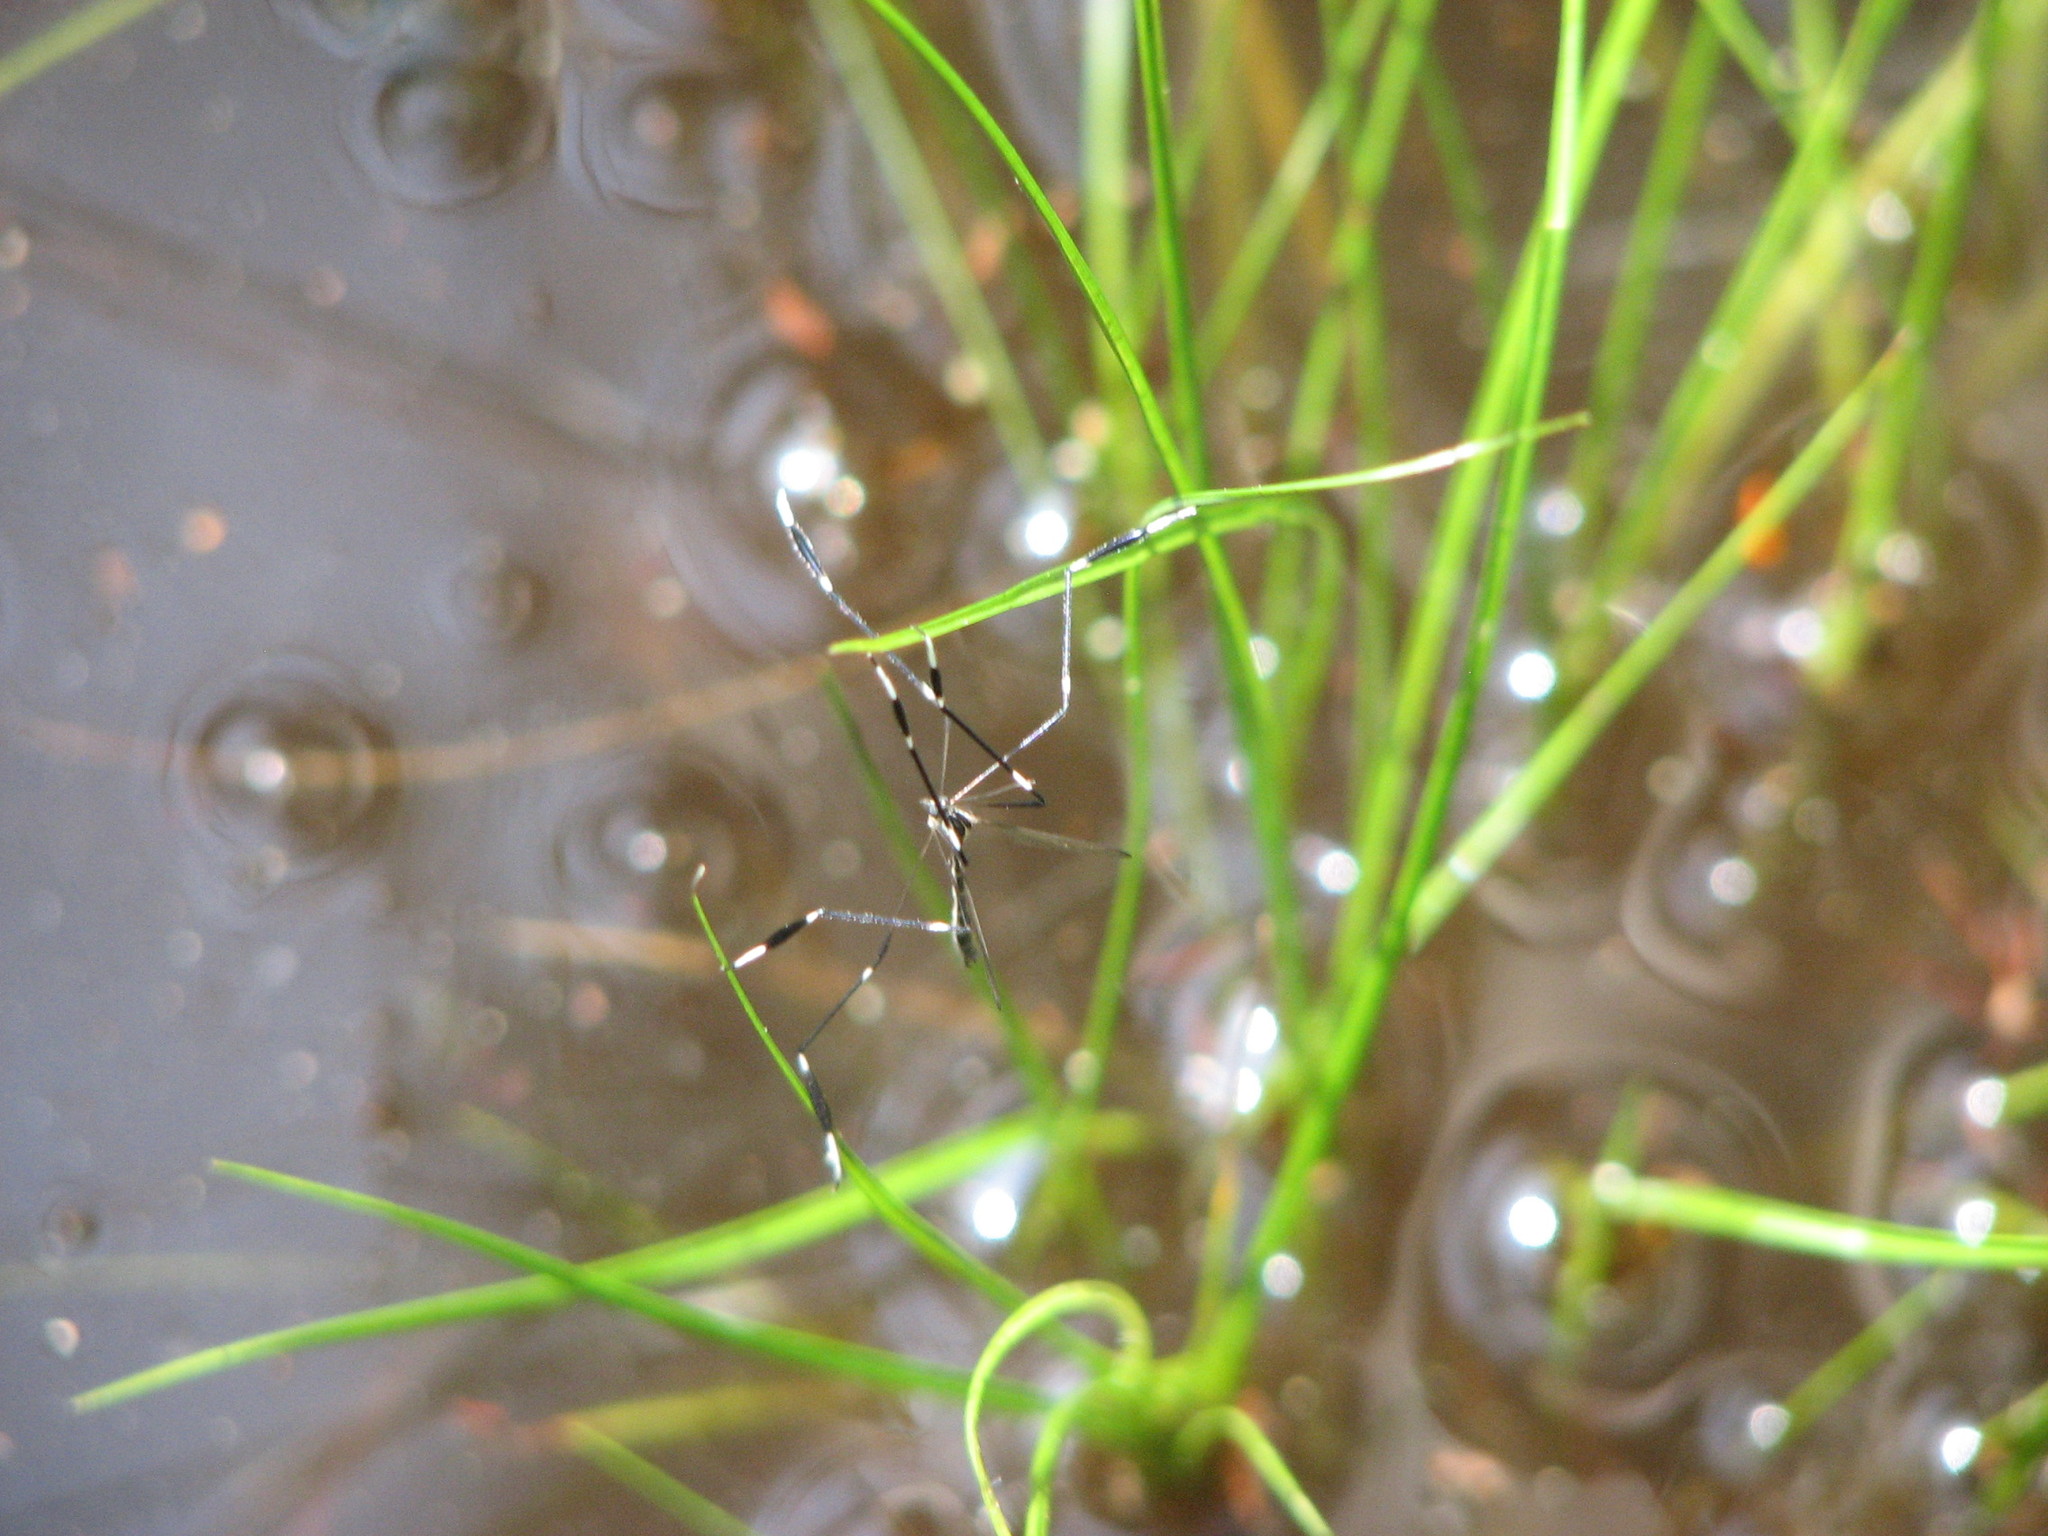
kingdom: Animalia
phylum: Arthropoda
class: Insecta
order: Diptera
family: Ptychopteridae
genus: Bittacomorpha
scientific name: Bittacomorpha clavipes
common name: Eastern phantom crane fly
